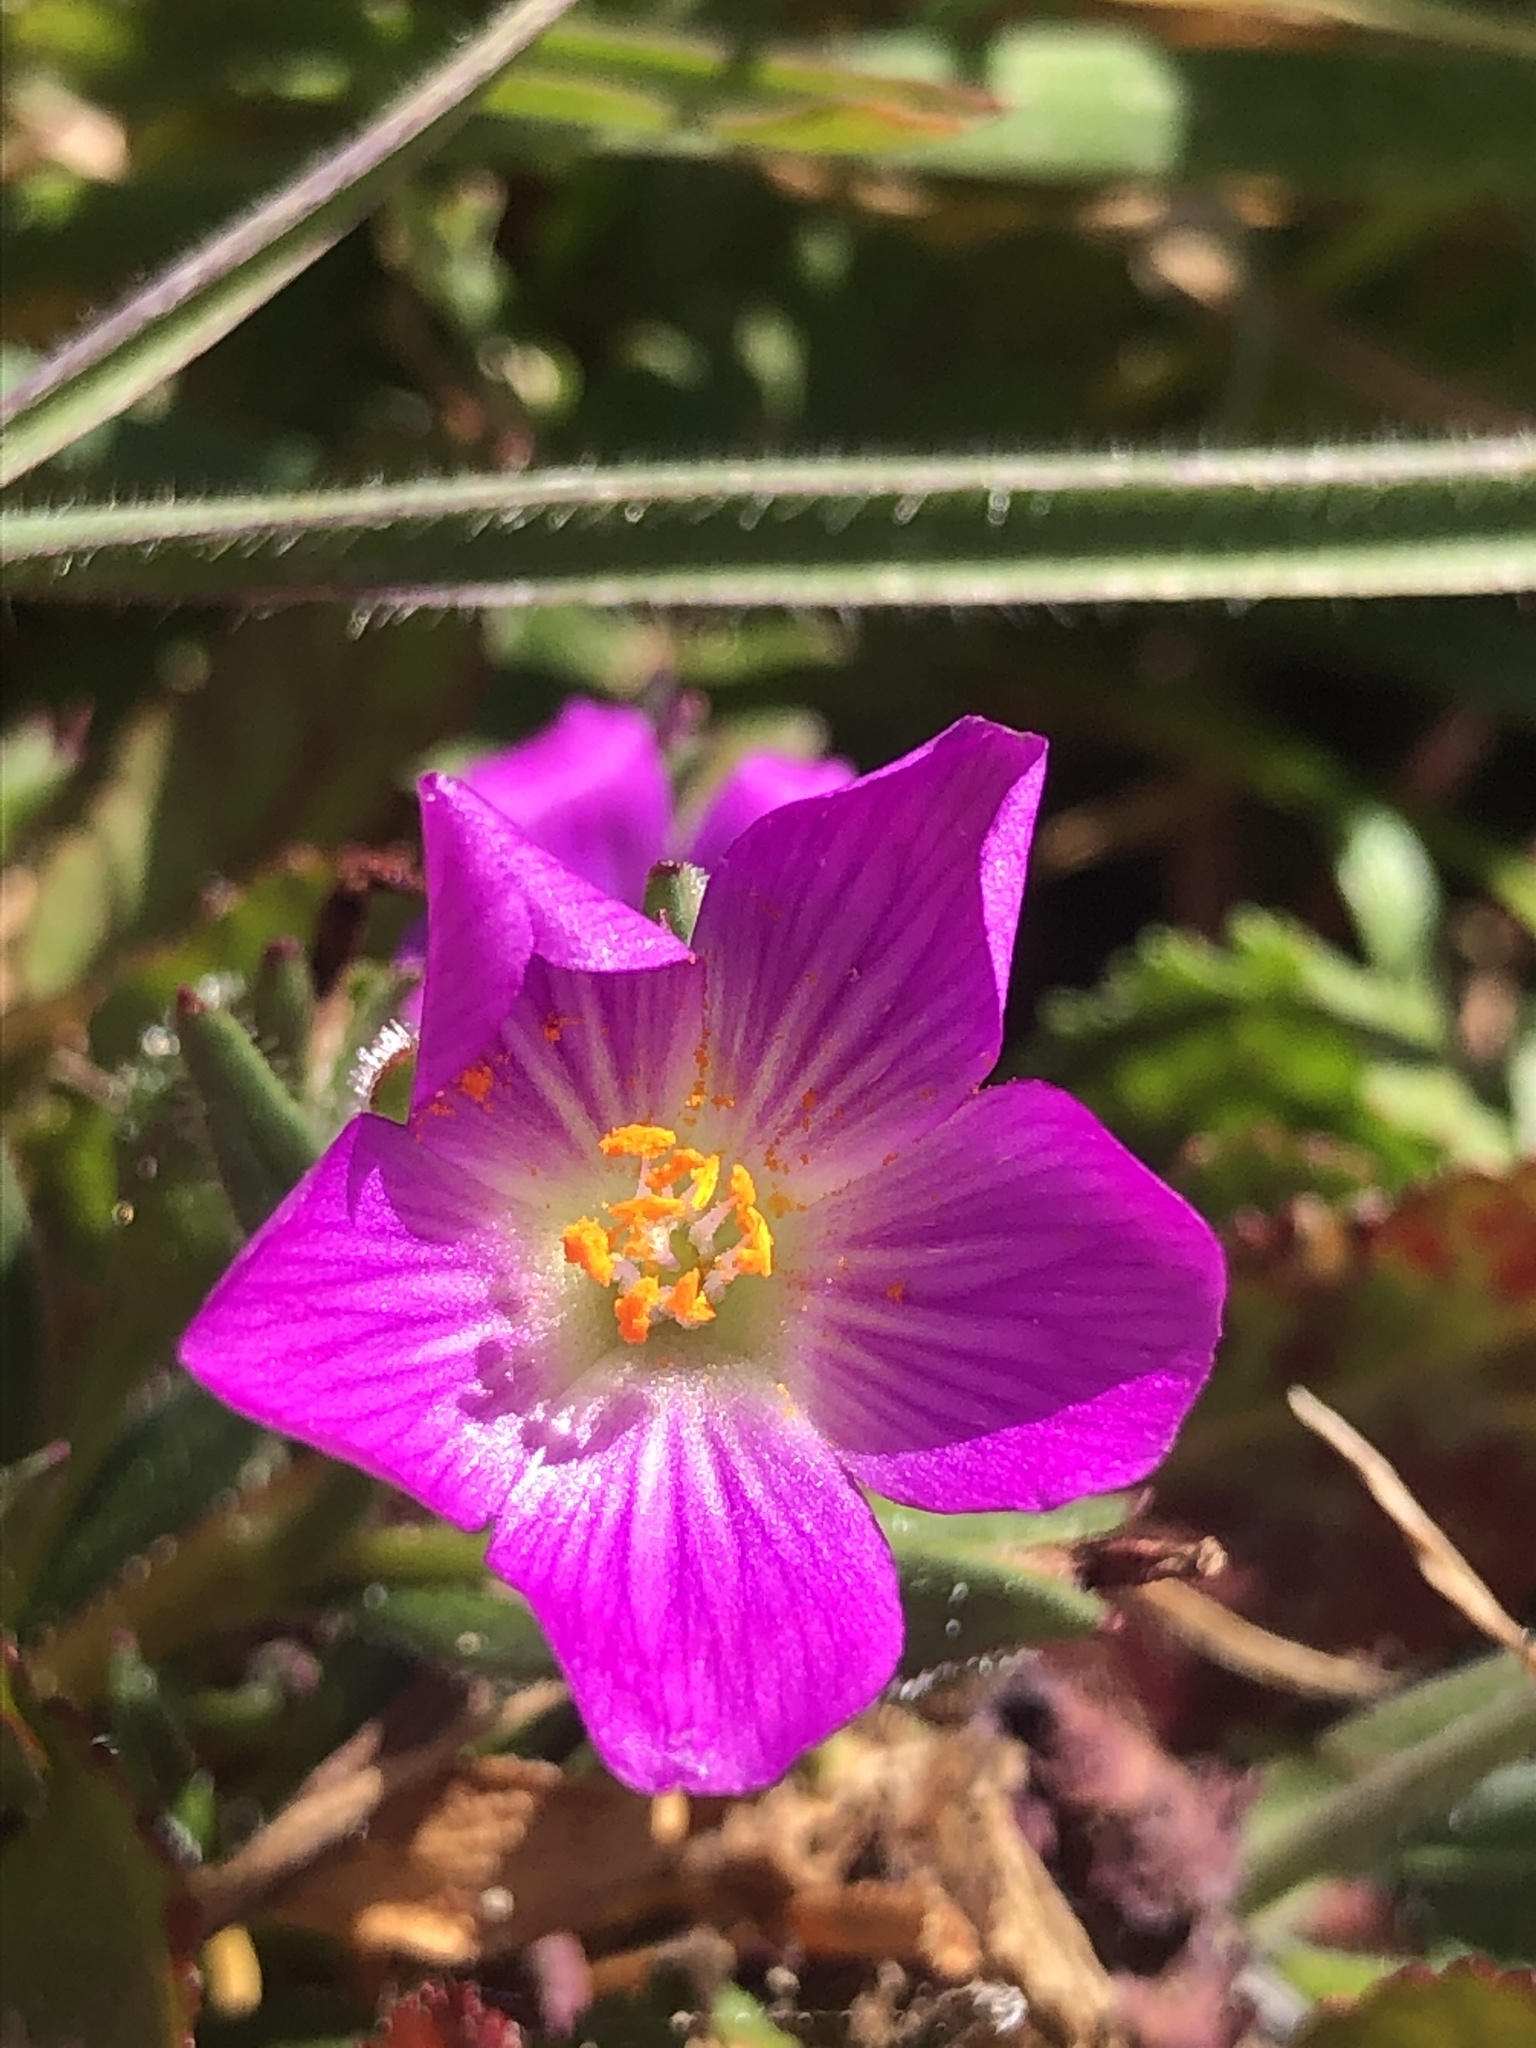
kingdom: Plantae
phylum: Tracheophyta
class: Magnoliopsida
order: Caryophyllales
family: Montiaceae
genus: Calandrinia
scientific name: Calandrinia menziesii
